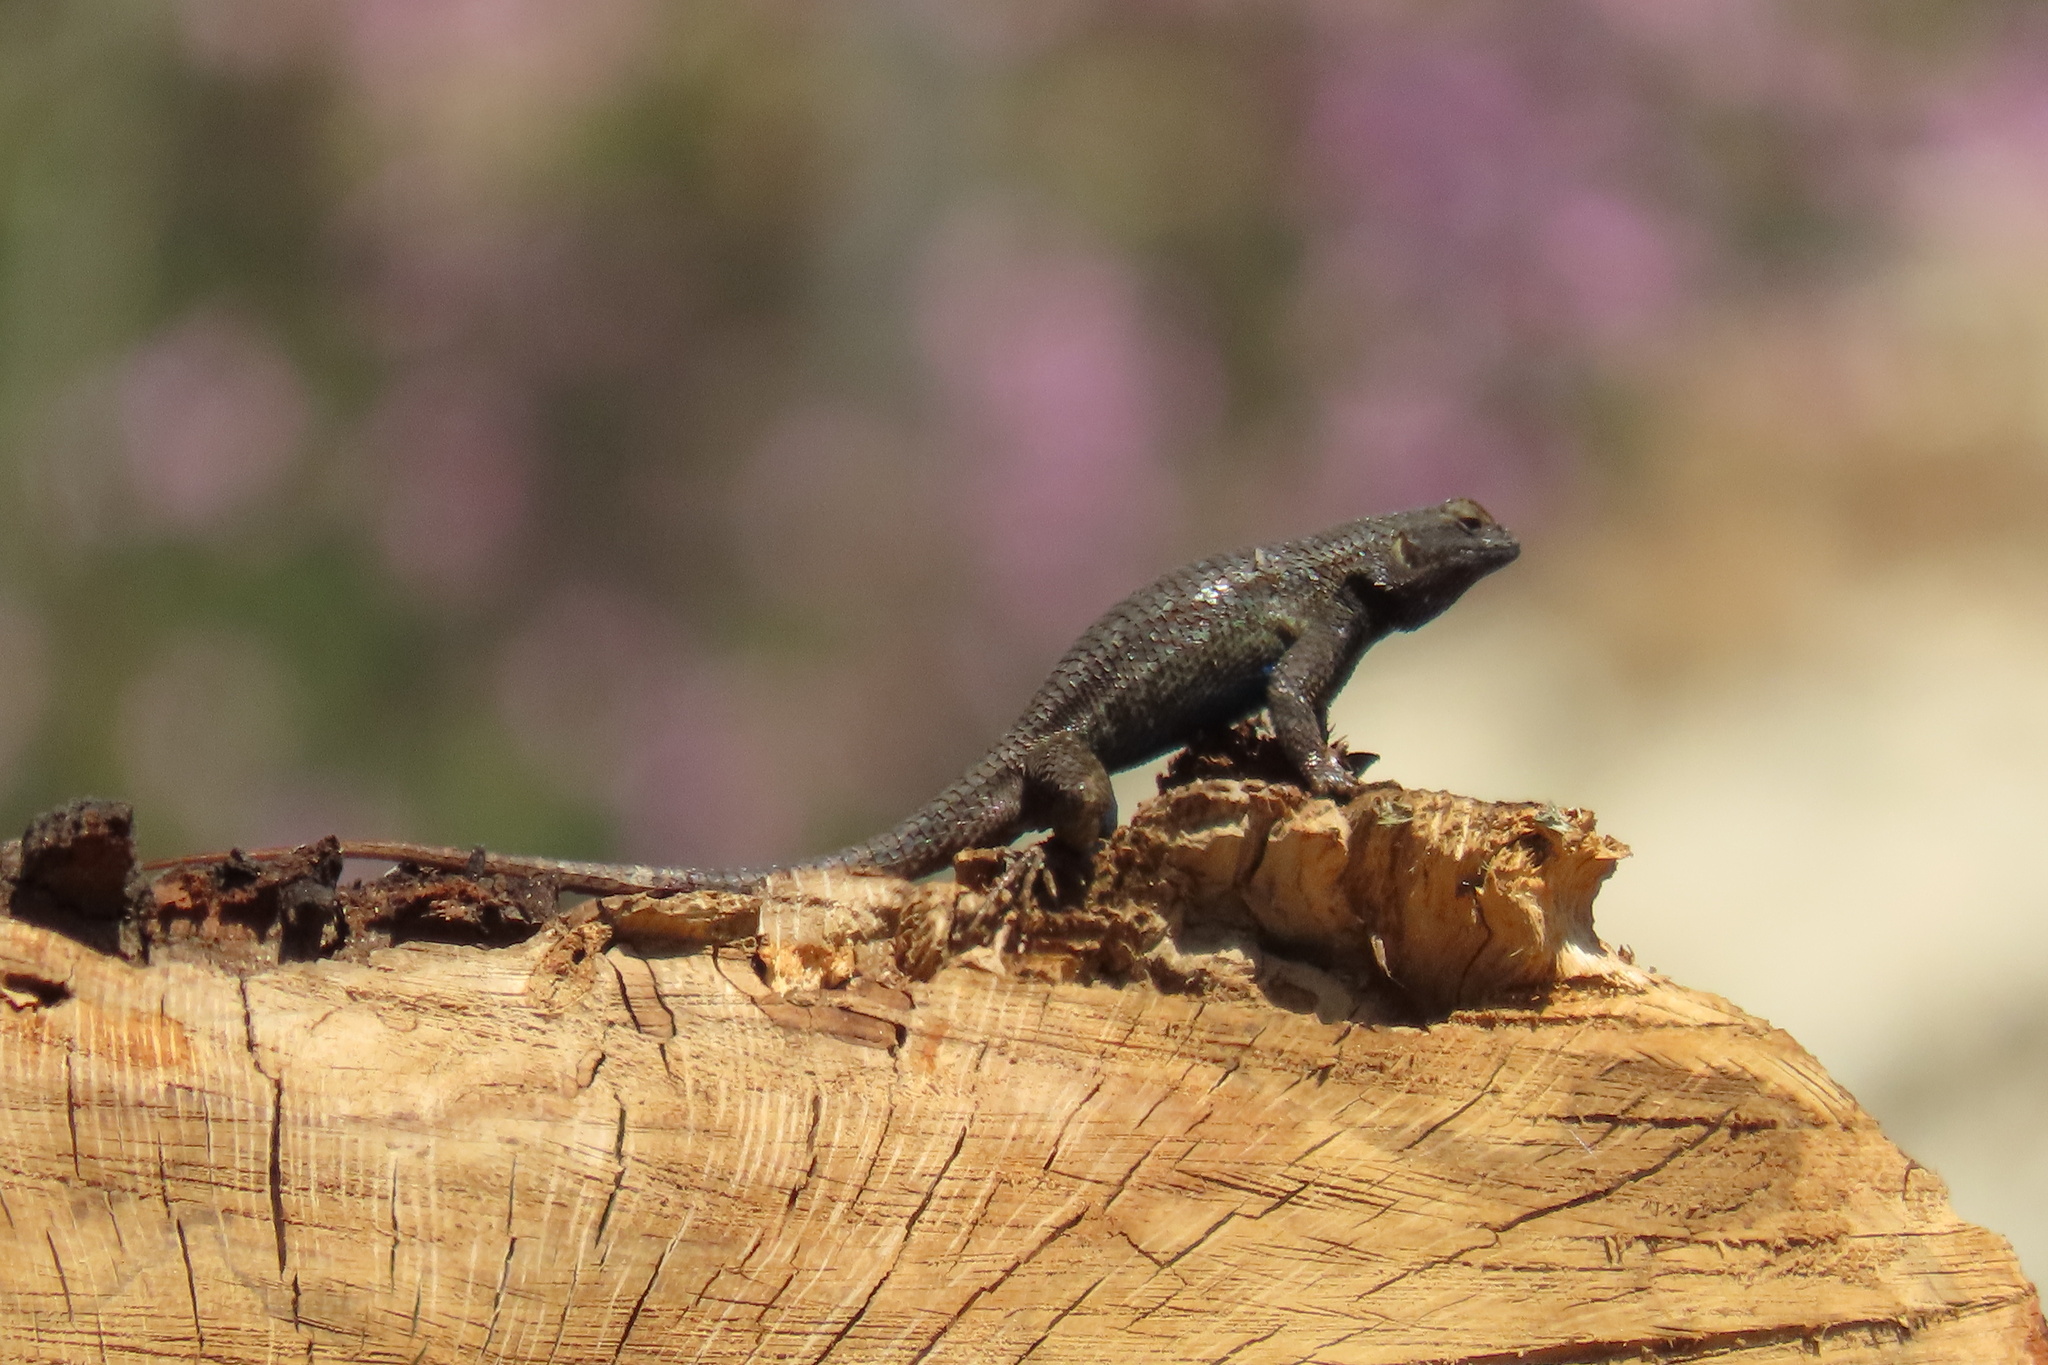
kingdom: Animalia
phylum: Chordata
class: Squamata
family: Phrynosomatidae
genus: Sceloporus
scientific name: Sceloporus occidentalis
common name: Western fence lizard
